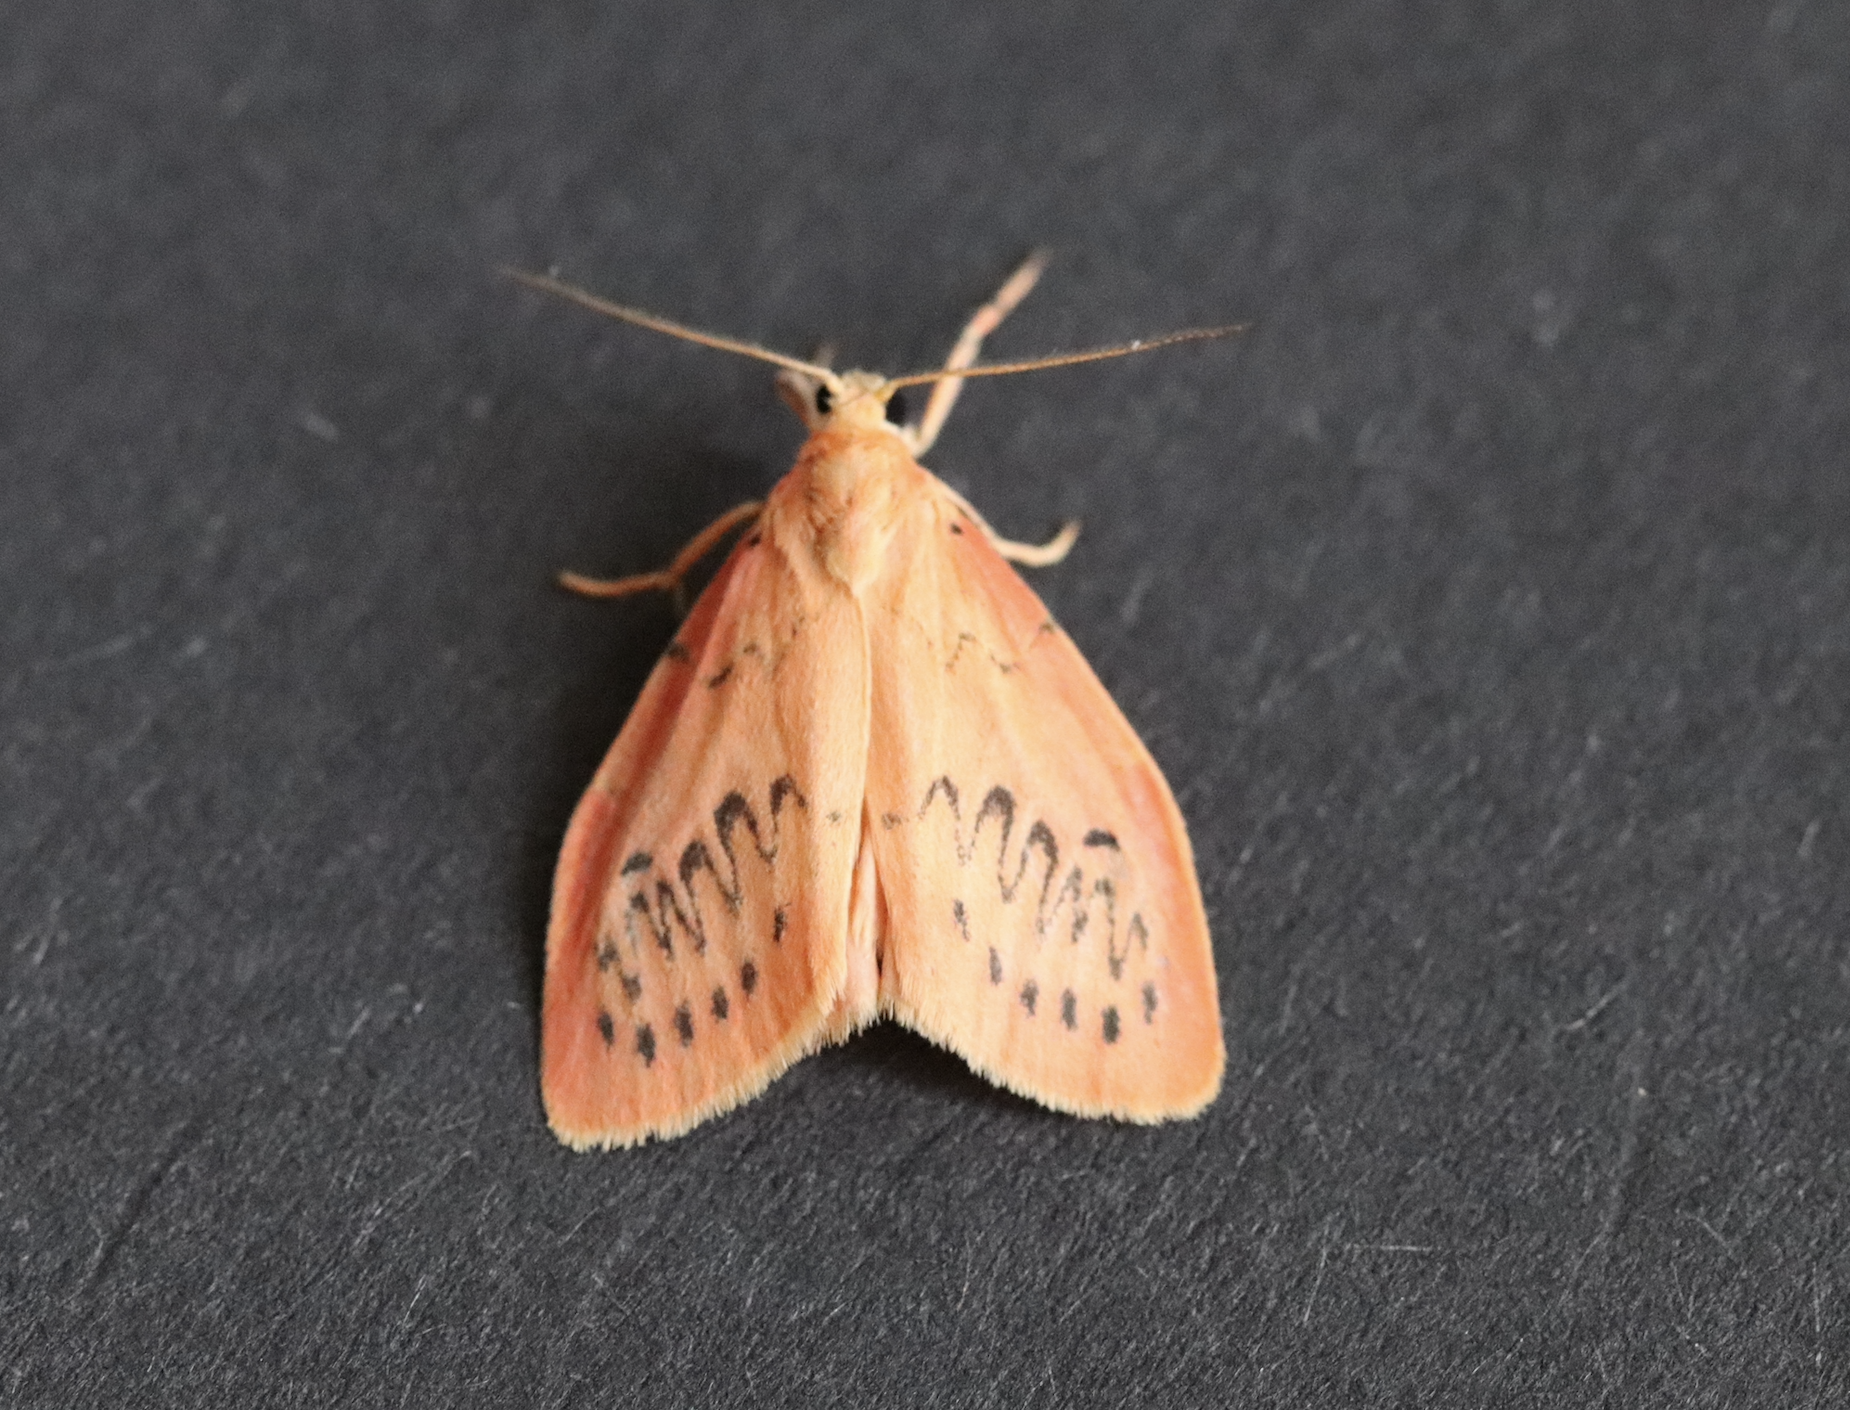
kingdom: Animalia
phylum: Arthropoda
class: Insecta
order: Lepidoptera
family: Erebidae
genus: Miltochrista
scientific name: Miltochrista miniata
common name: Rosy footman
